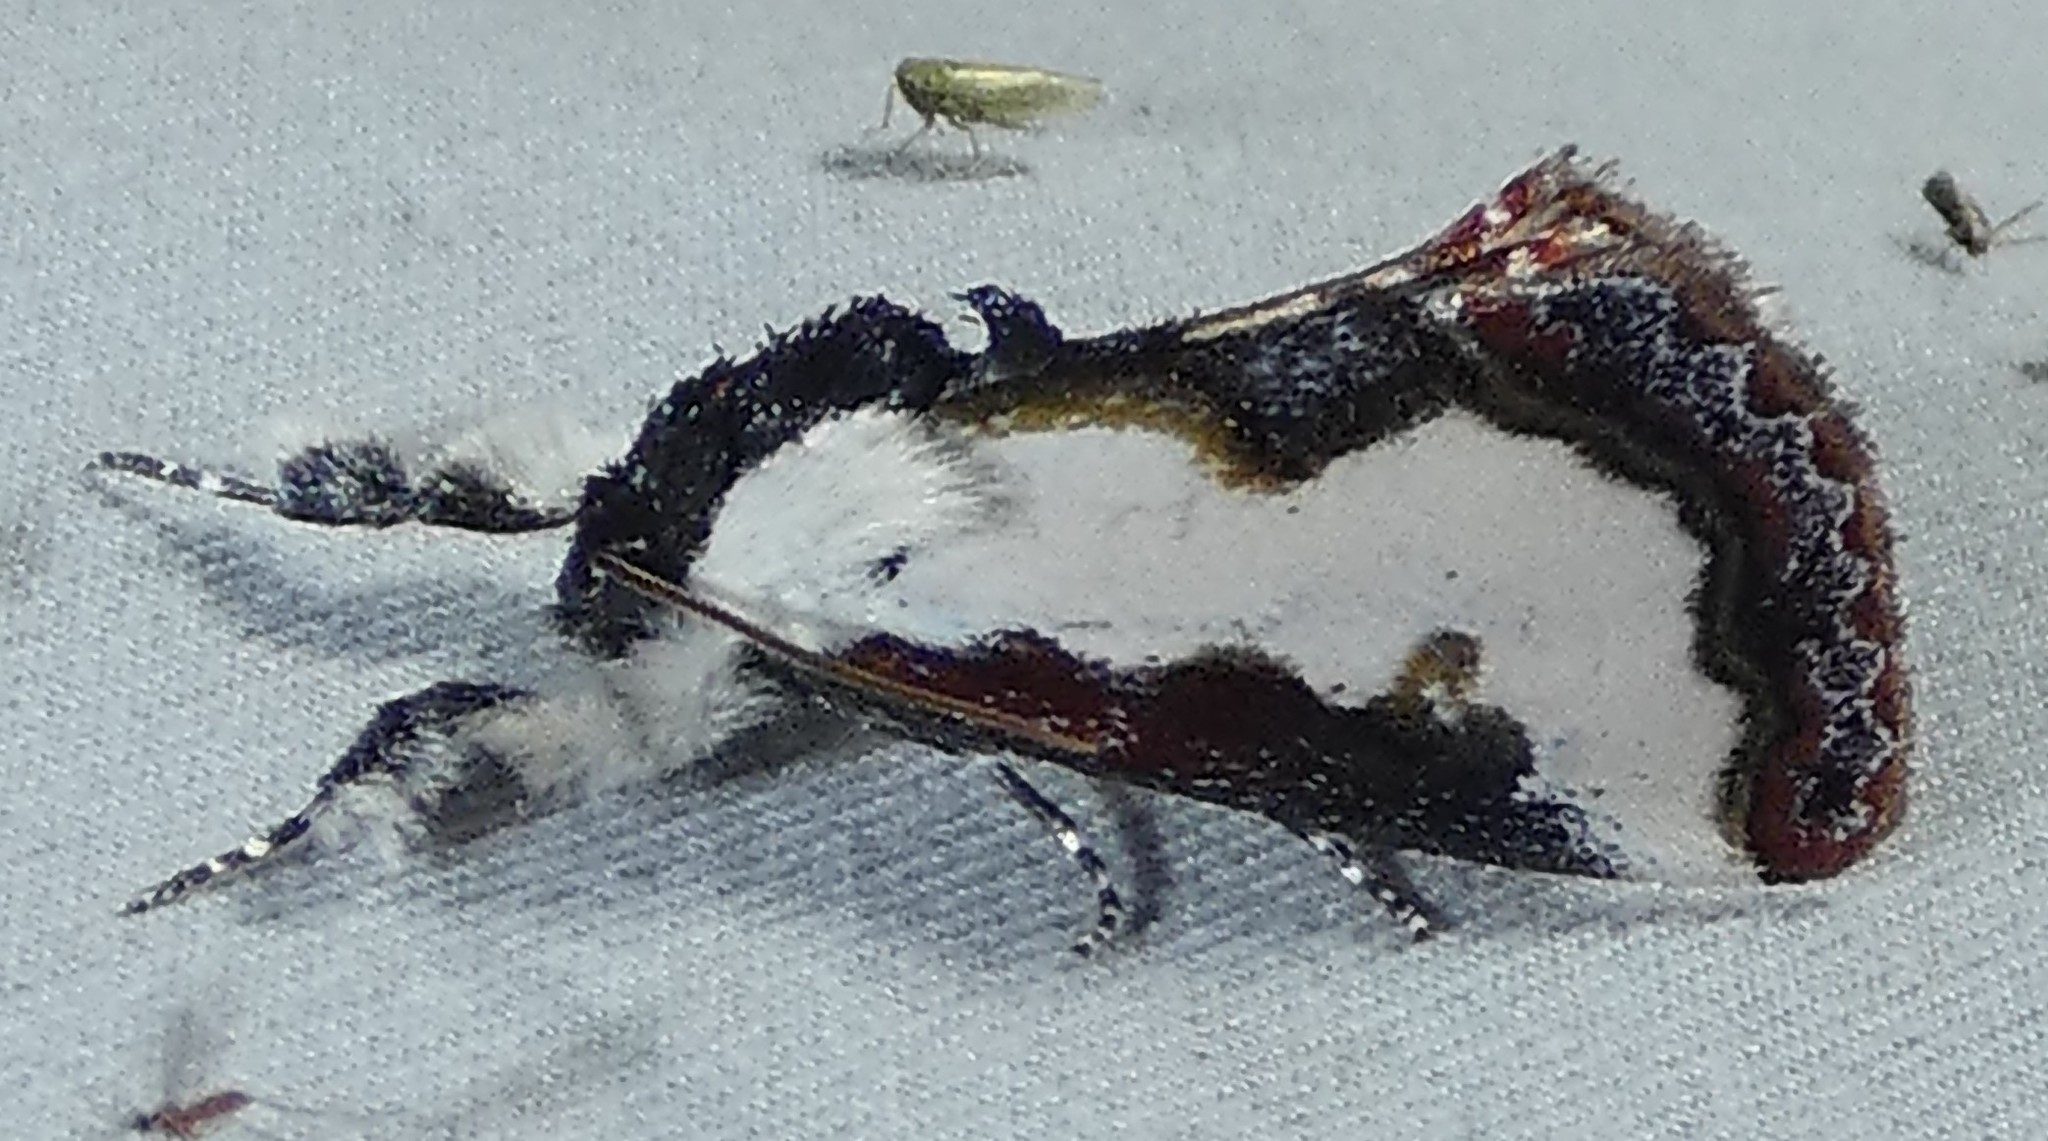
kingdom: Animalia
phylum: Arthropoda
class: Insecta
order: Lepidoptera
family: Noctuidae
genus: Eudryas
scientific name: Eudryas unio
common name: Pearly wood-nymph
